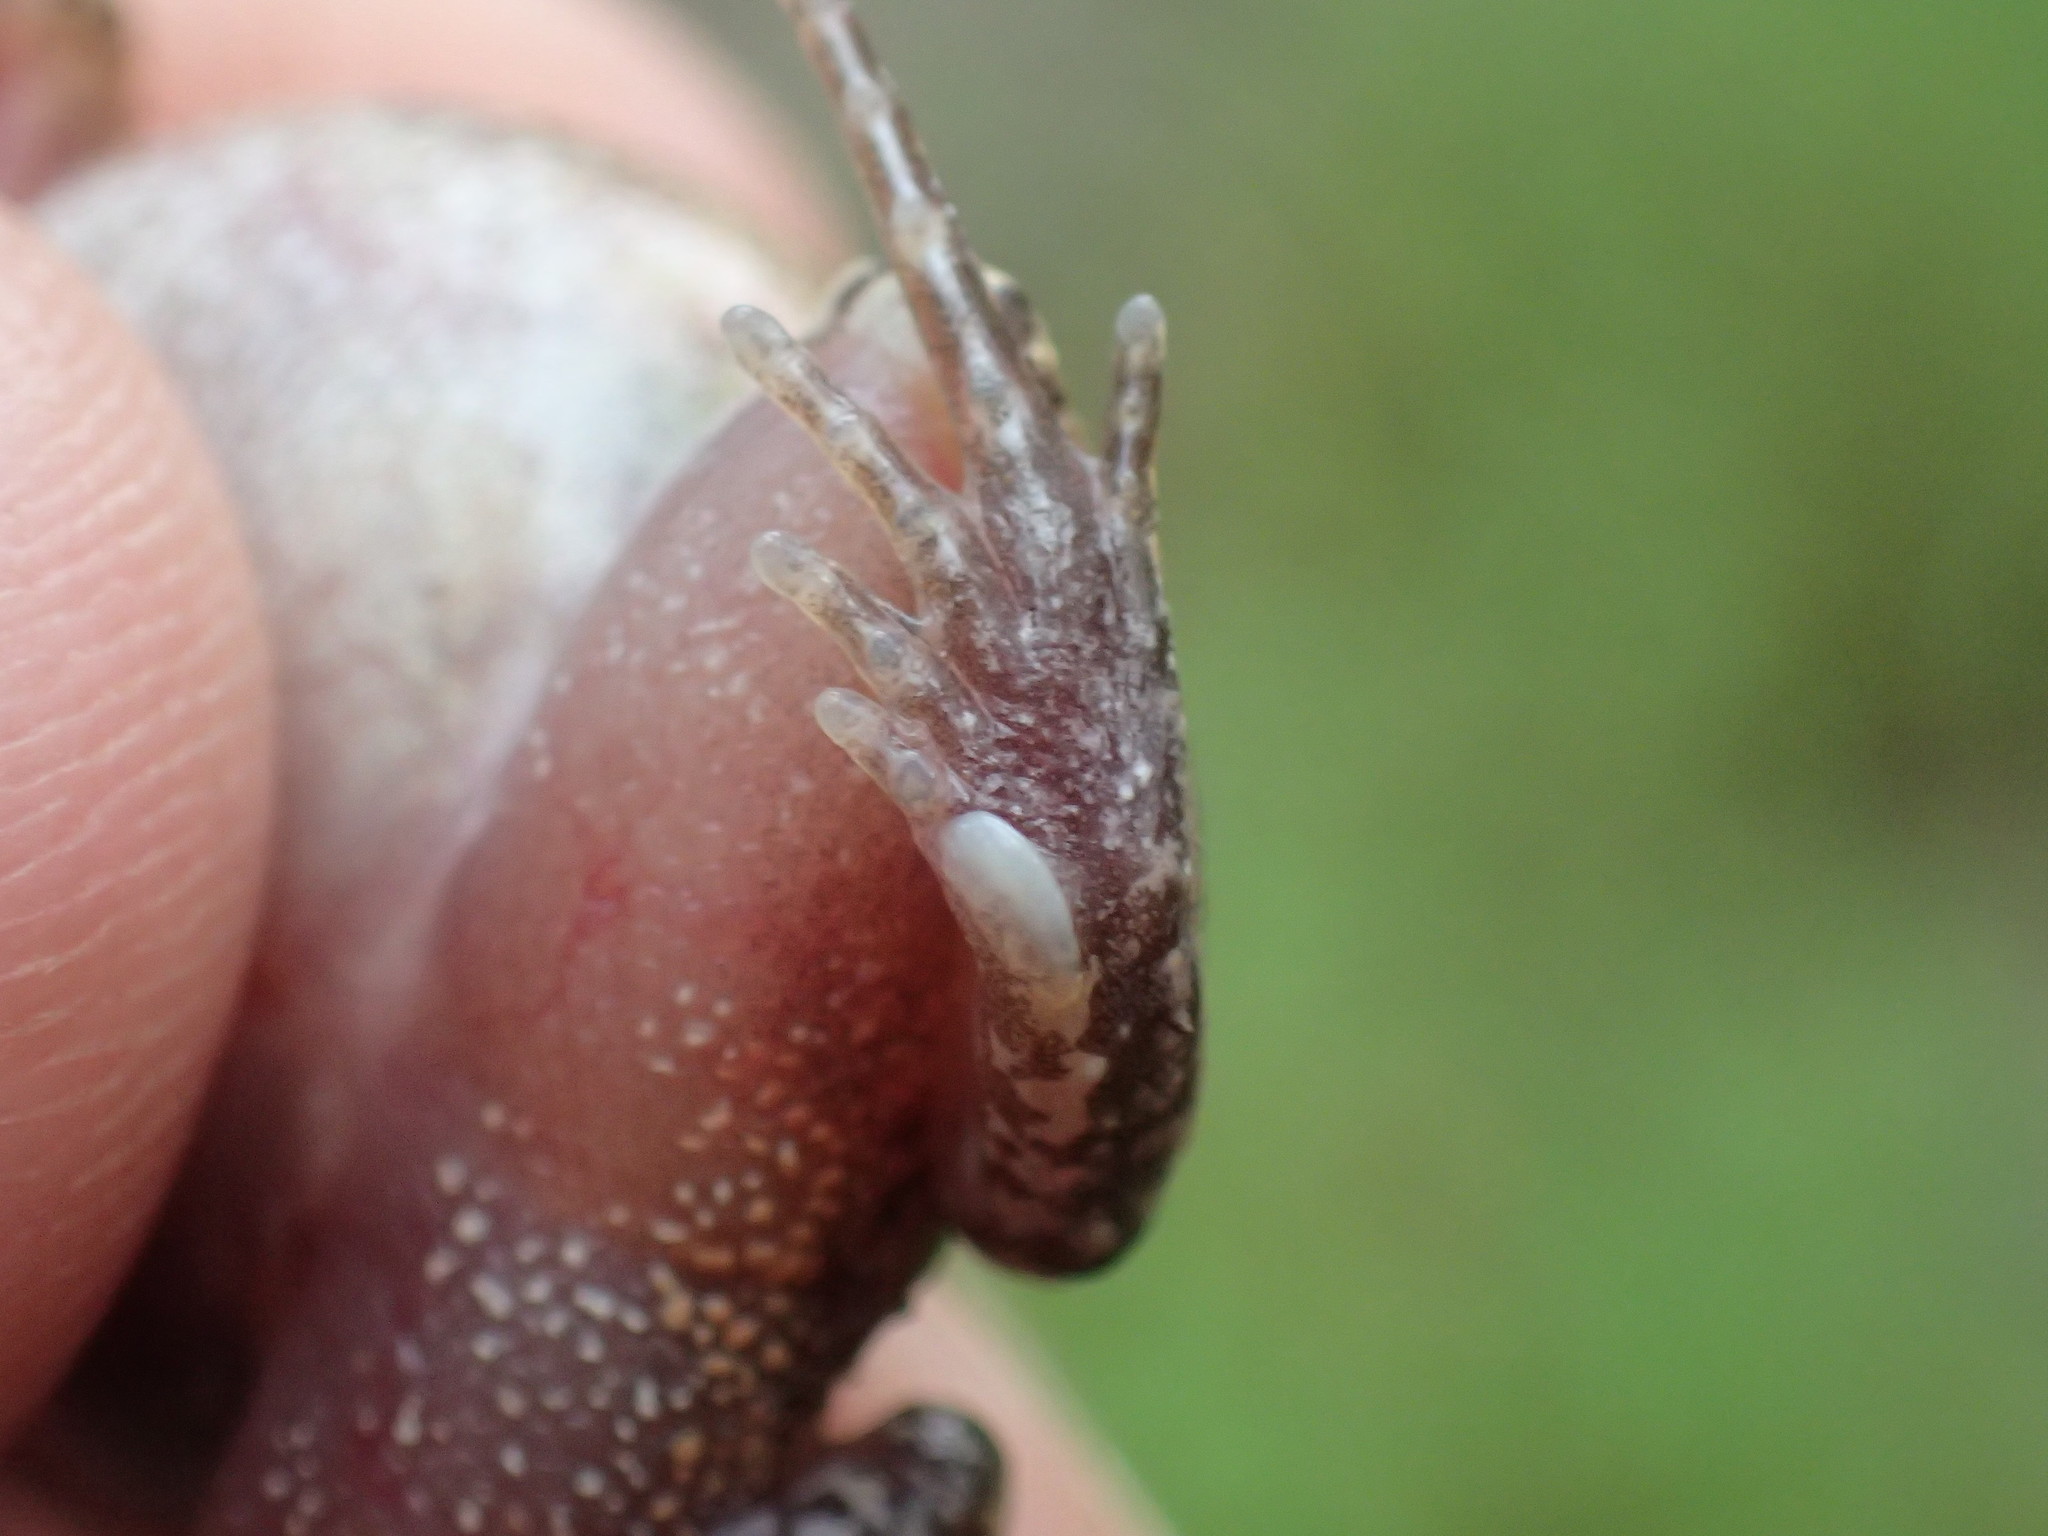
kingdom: Animalia
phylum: Chordata
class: Amphibia
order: Anura
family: Arthroleptidae
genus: Arthroleptis
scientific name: Arthroleptis stenodactylus
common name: Dune squeaker
